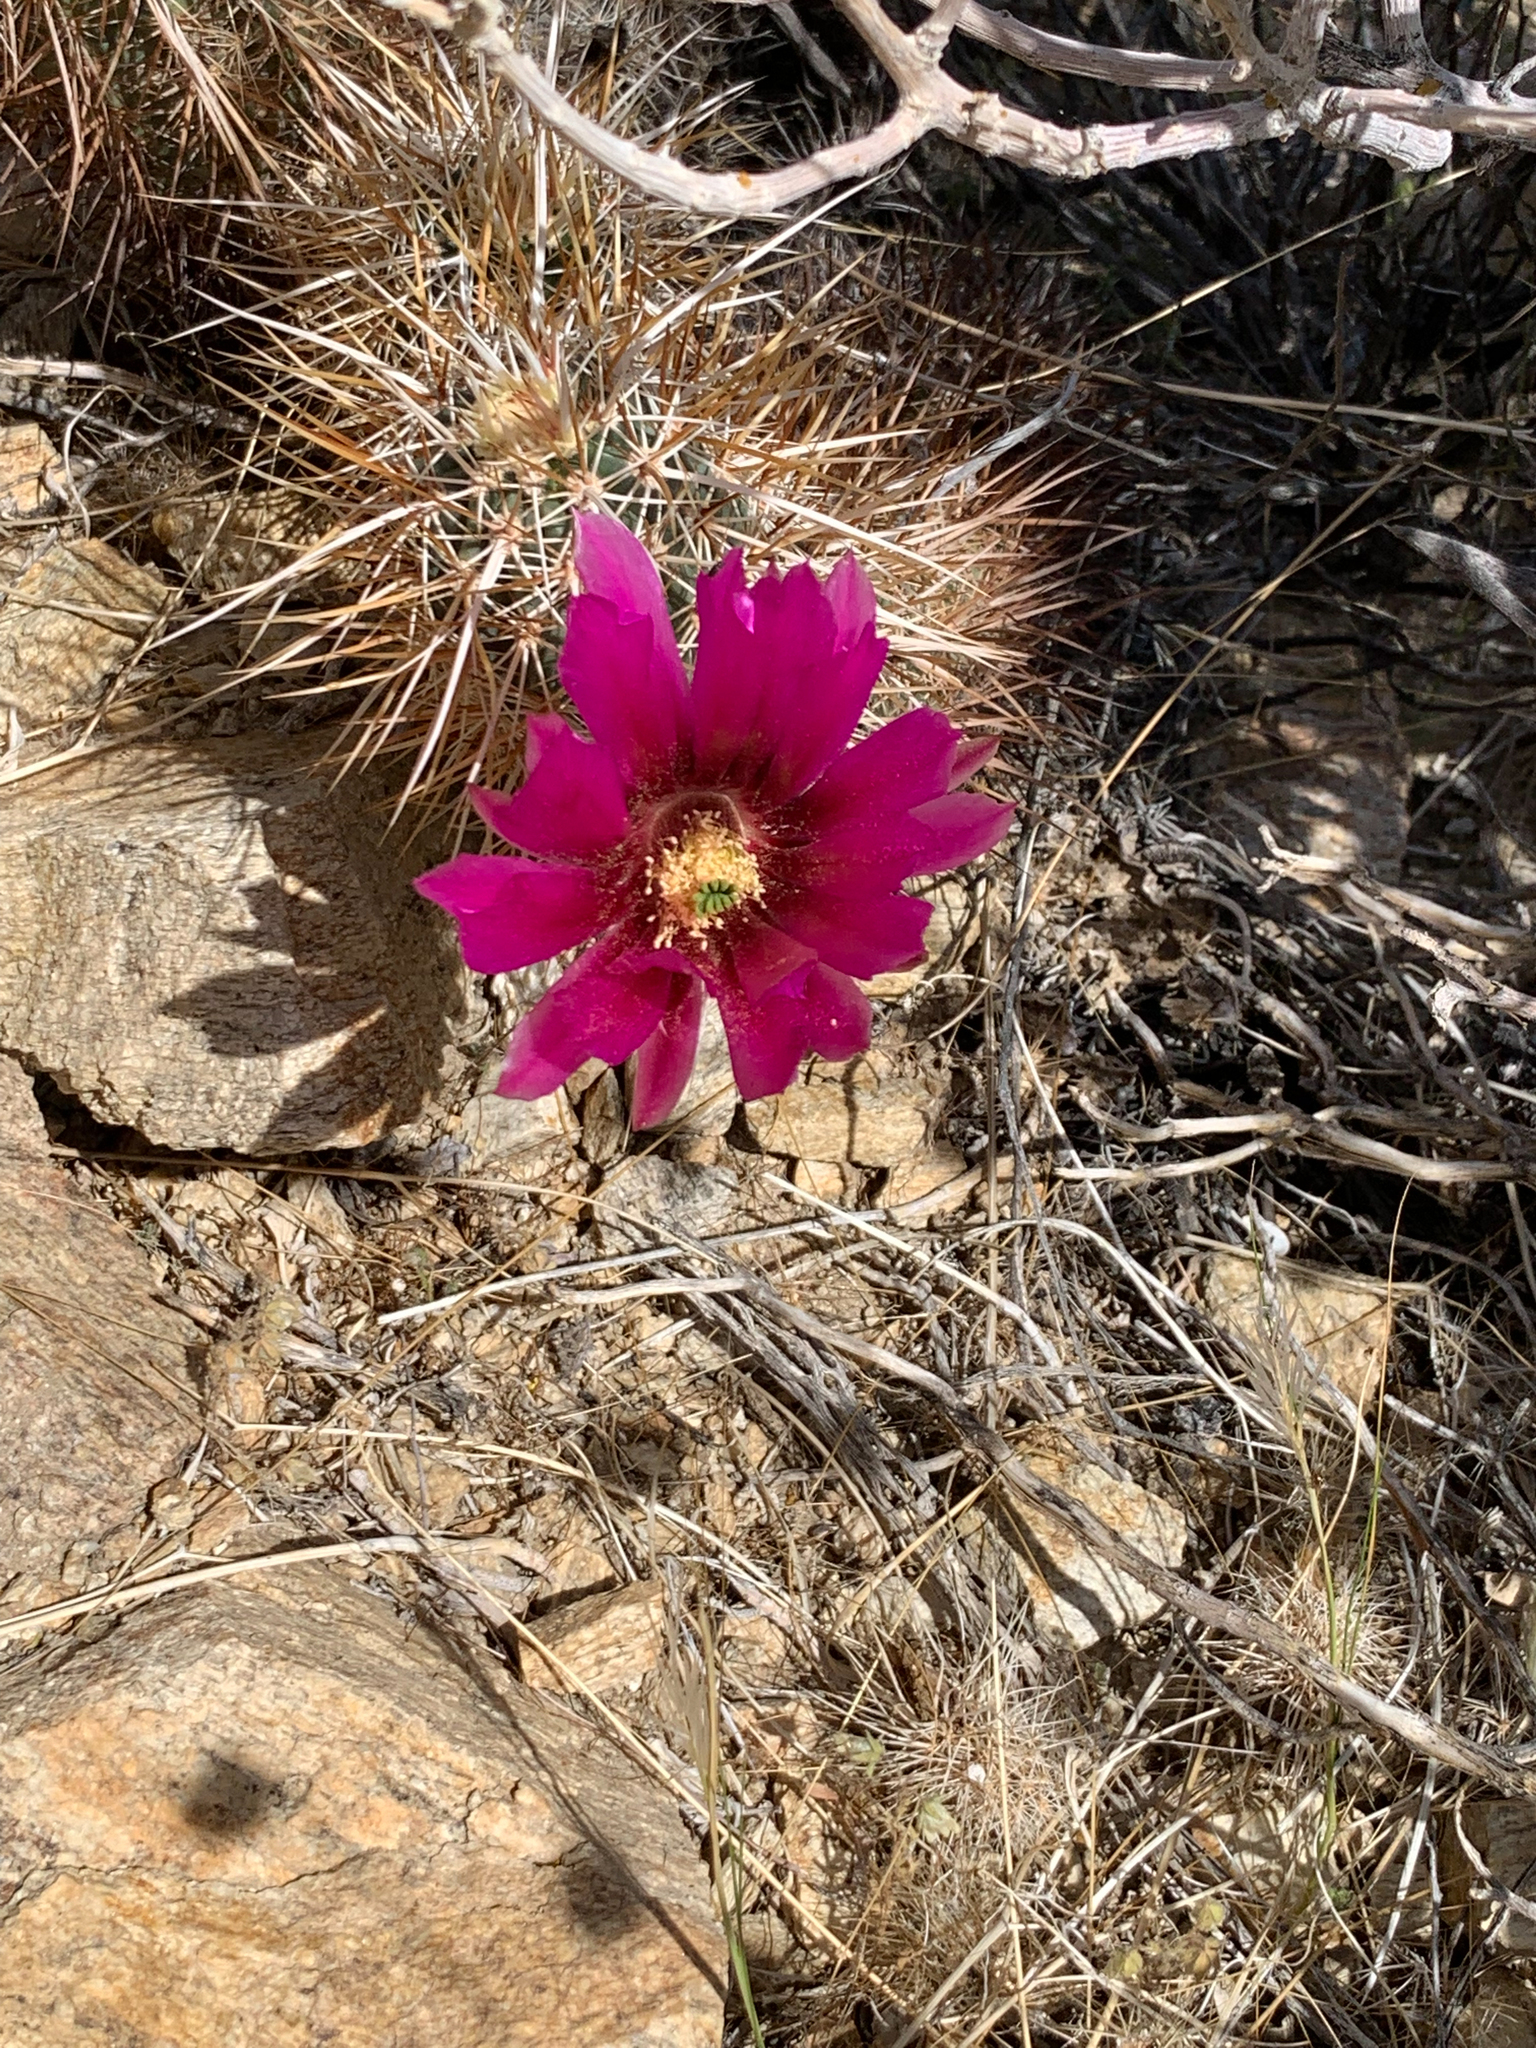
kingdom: Plantae
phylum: Tracheophyta
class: Magnoliopsida
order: Caryophyllales
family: Cactaceae
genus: Echinocereus
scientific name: Echinocereus engelmannii
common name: Engelmann's hedgehog cactus
